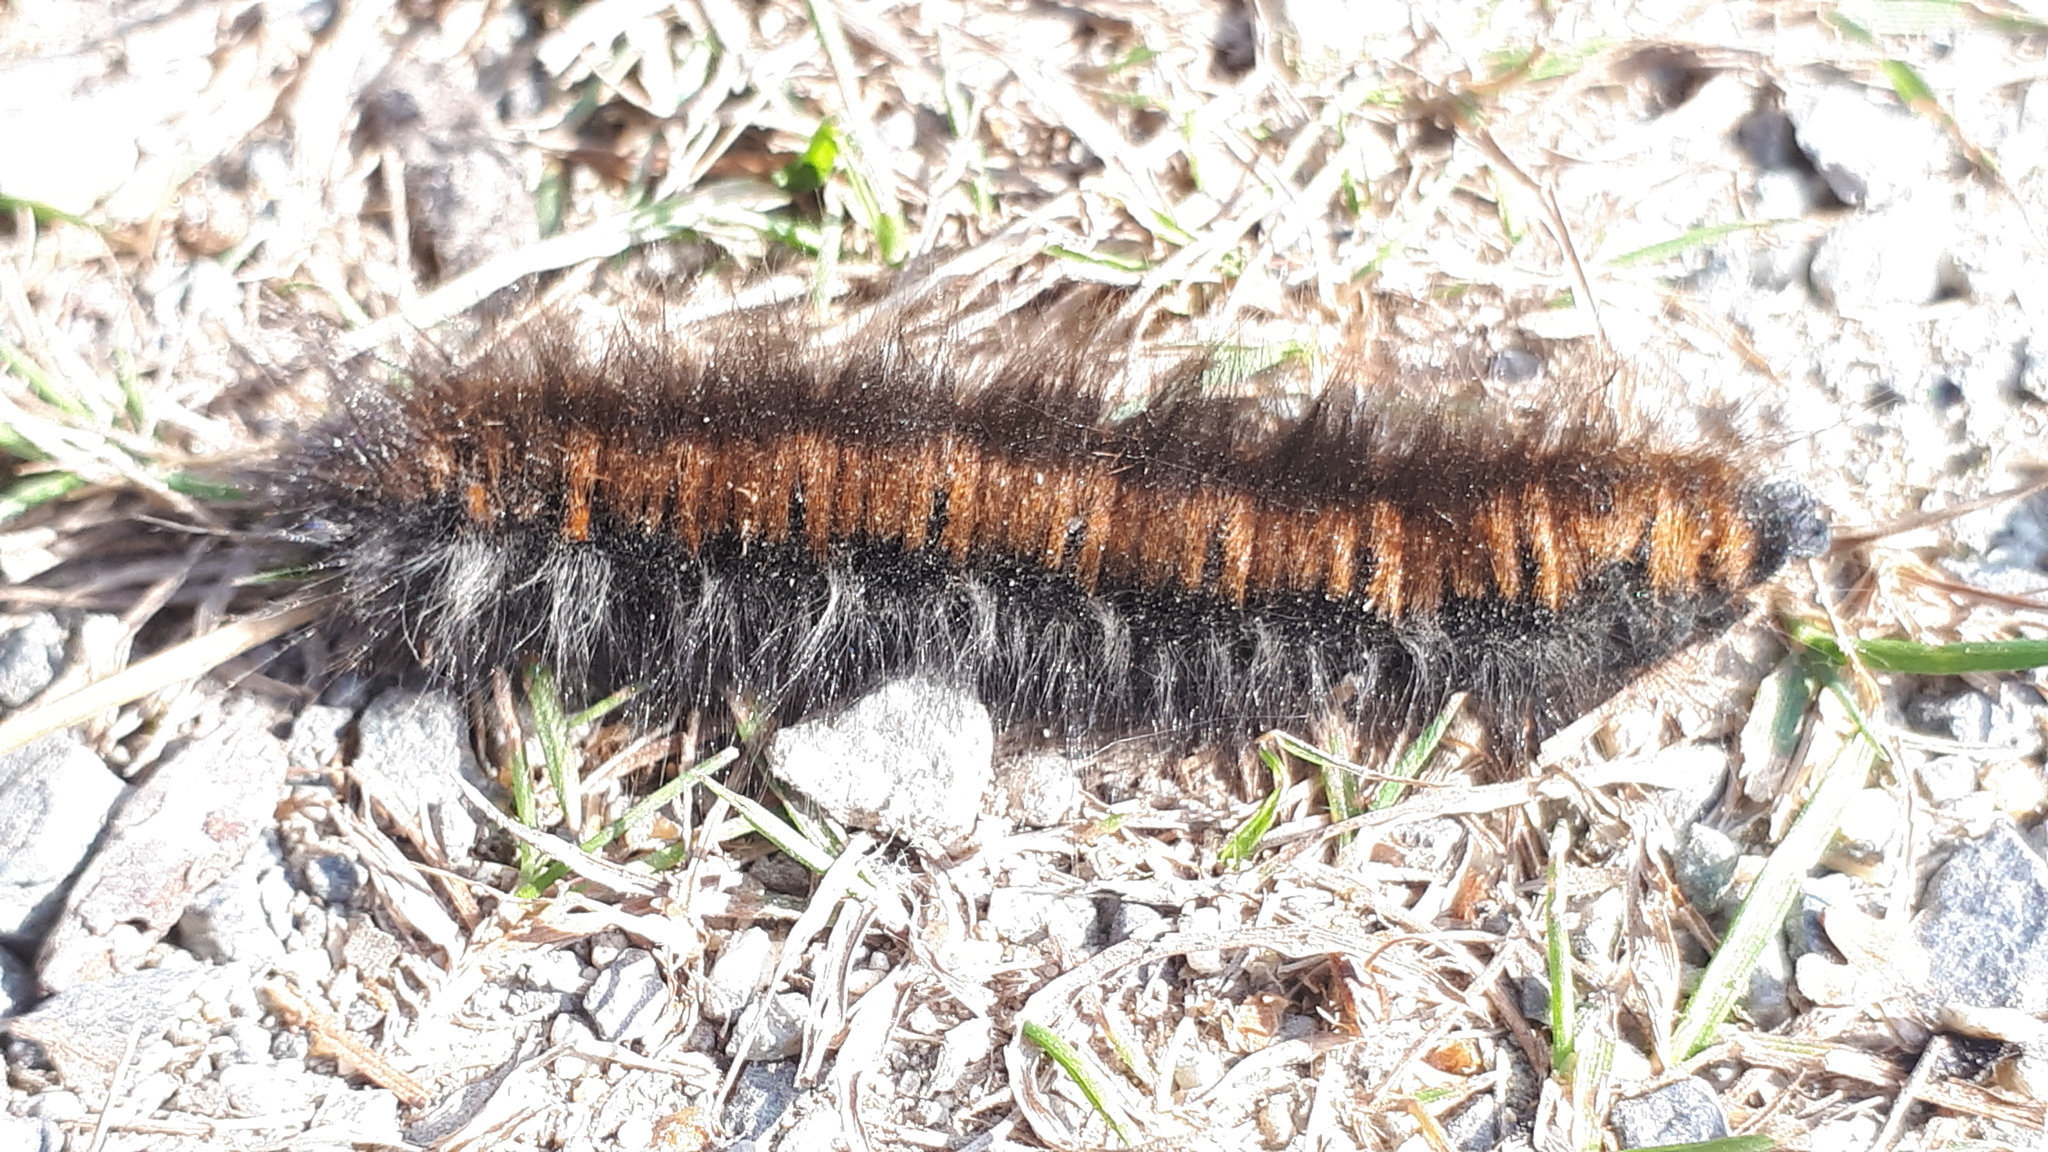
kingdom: Animalia
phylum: Arthropoda
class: Insecta
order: Lepidoptera
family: Lasiocampidae
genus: Macrothylacia
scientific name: Macrothylacia rubi
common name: Fox moth
